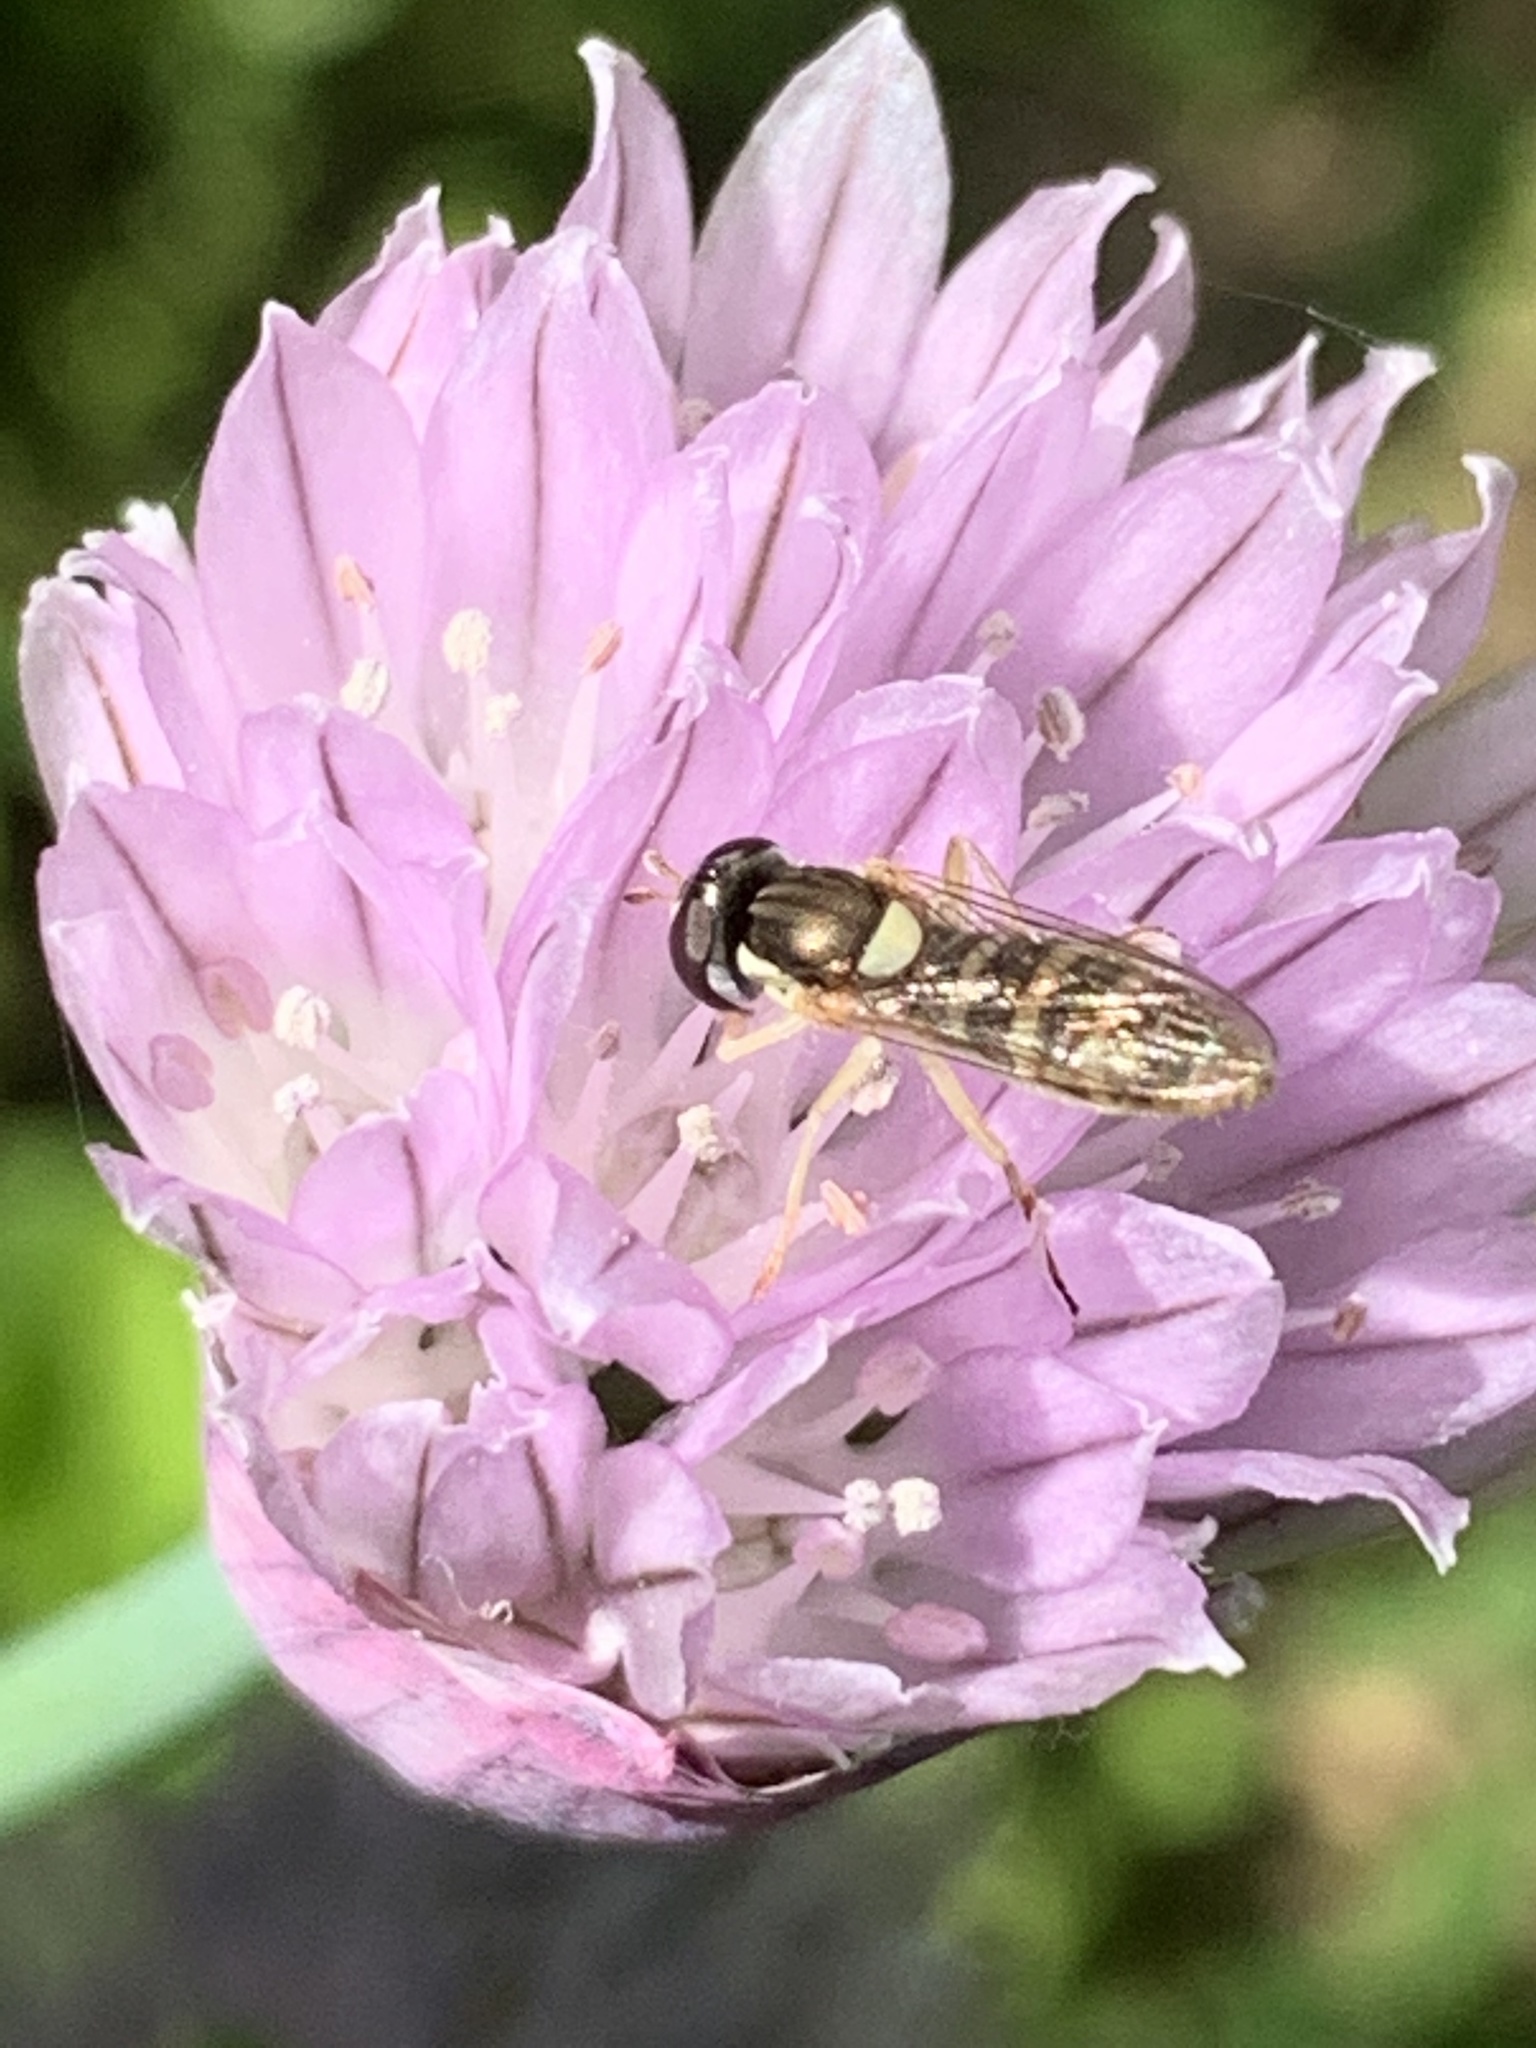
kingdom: Animalia
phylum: Arthropoda
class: Insecta
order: Diptera
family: Syrphidae
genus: Sphaerophoria
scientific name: Sphaerophoria contigua
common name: Tufted globetail
